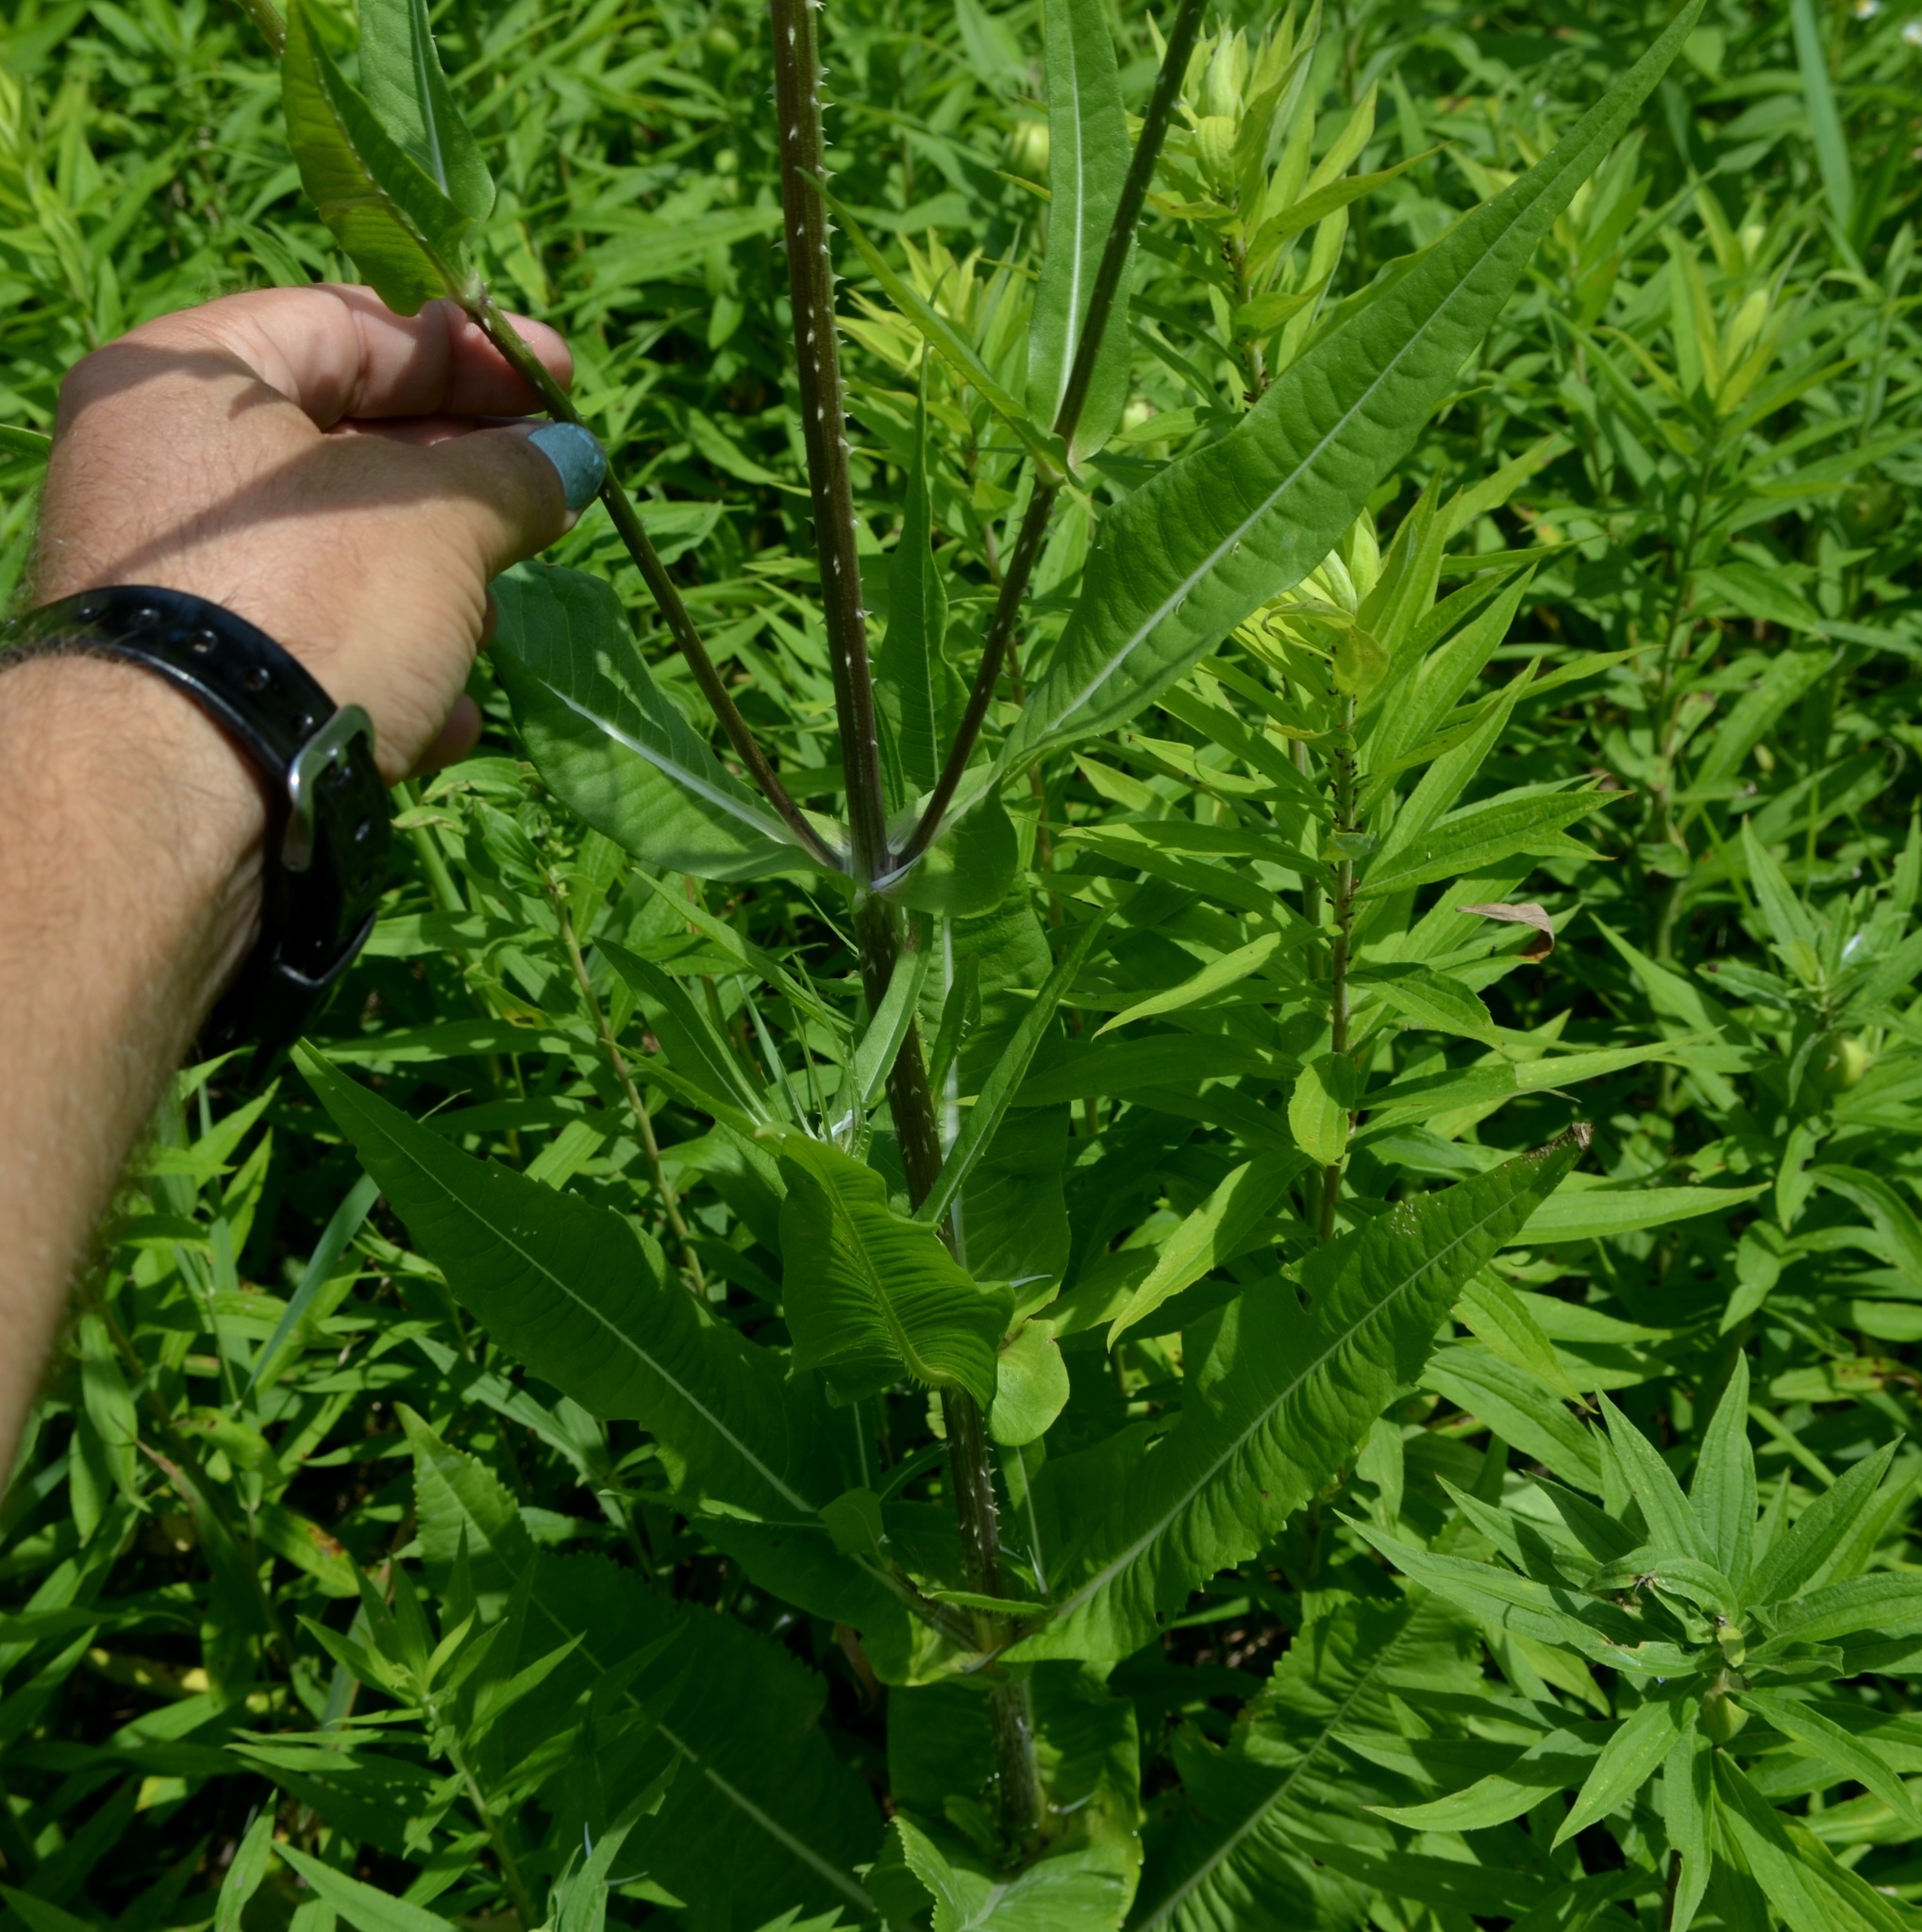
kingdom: Plantae
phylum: Tracheophyta
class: Magnoliopsida
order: Dipsacales
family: Caprifoliaceae
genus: Dipsacus
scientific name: Dipsacus fullonum
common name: Teasel
